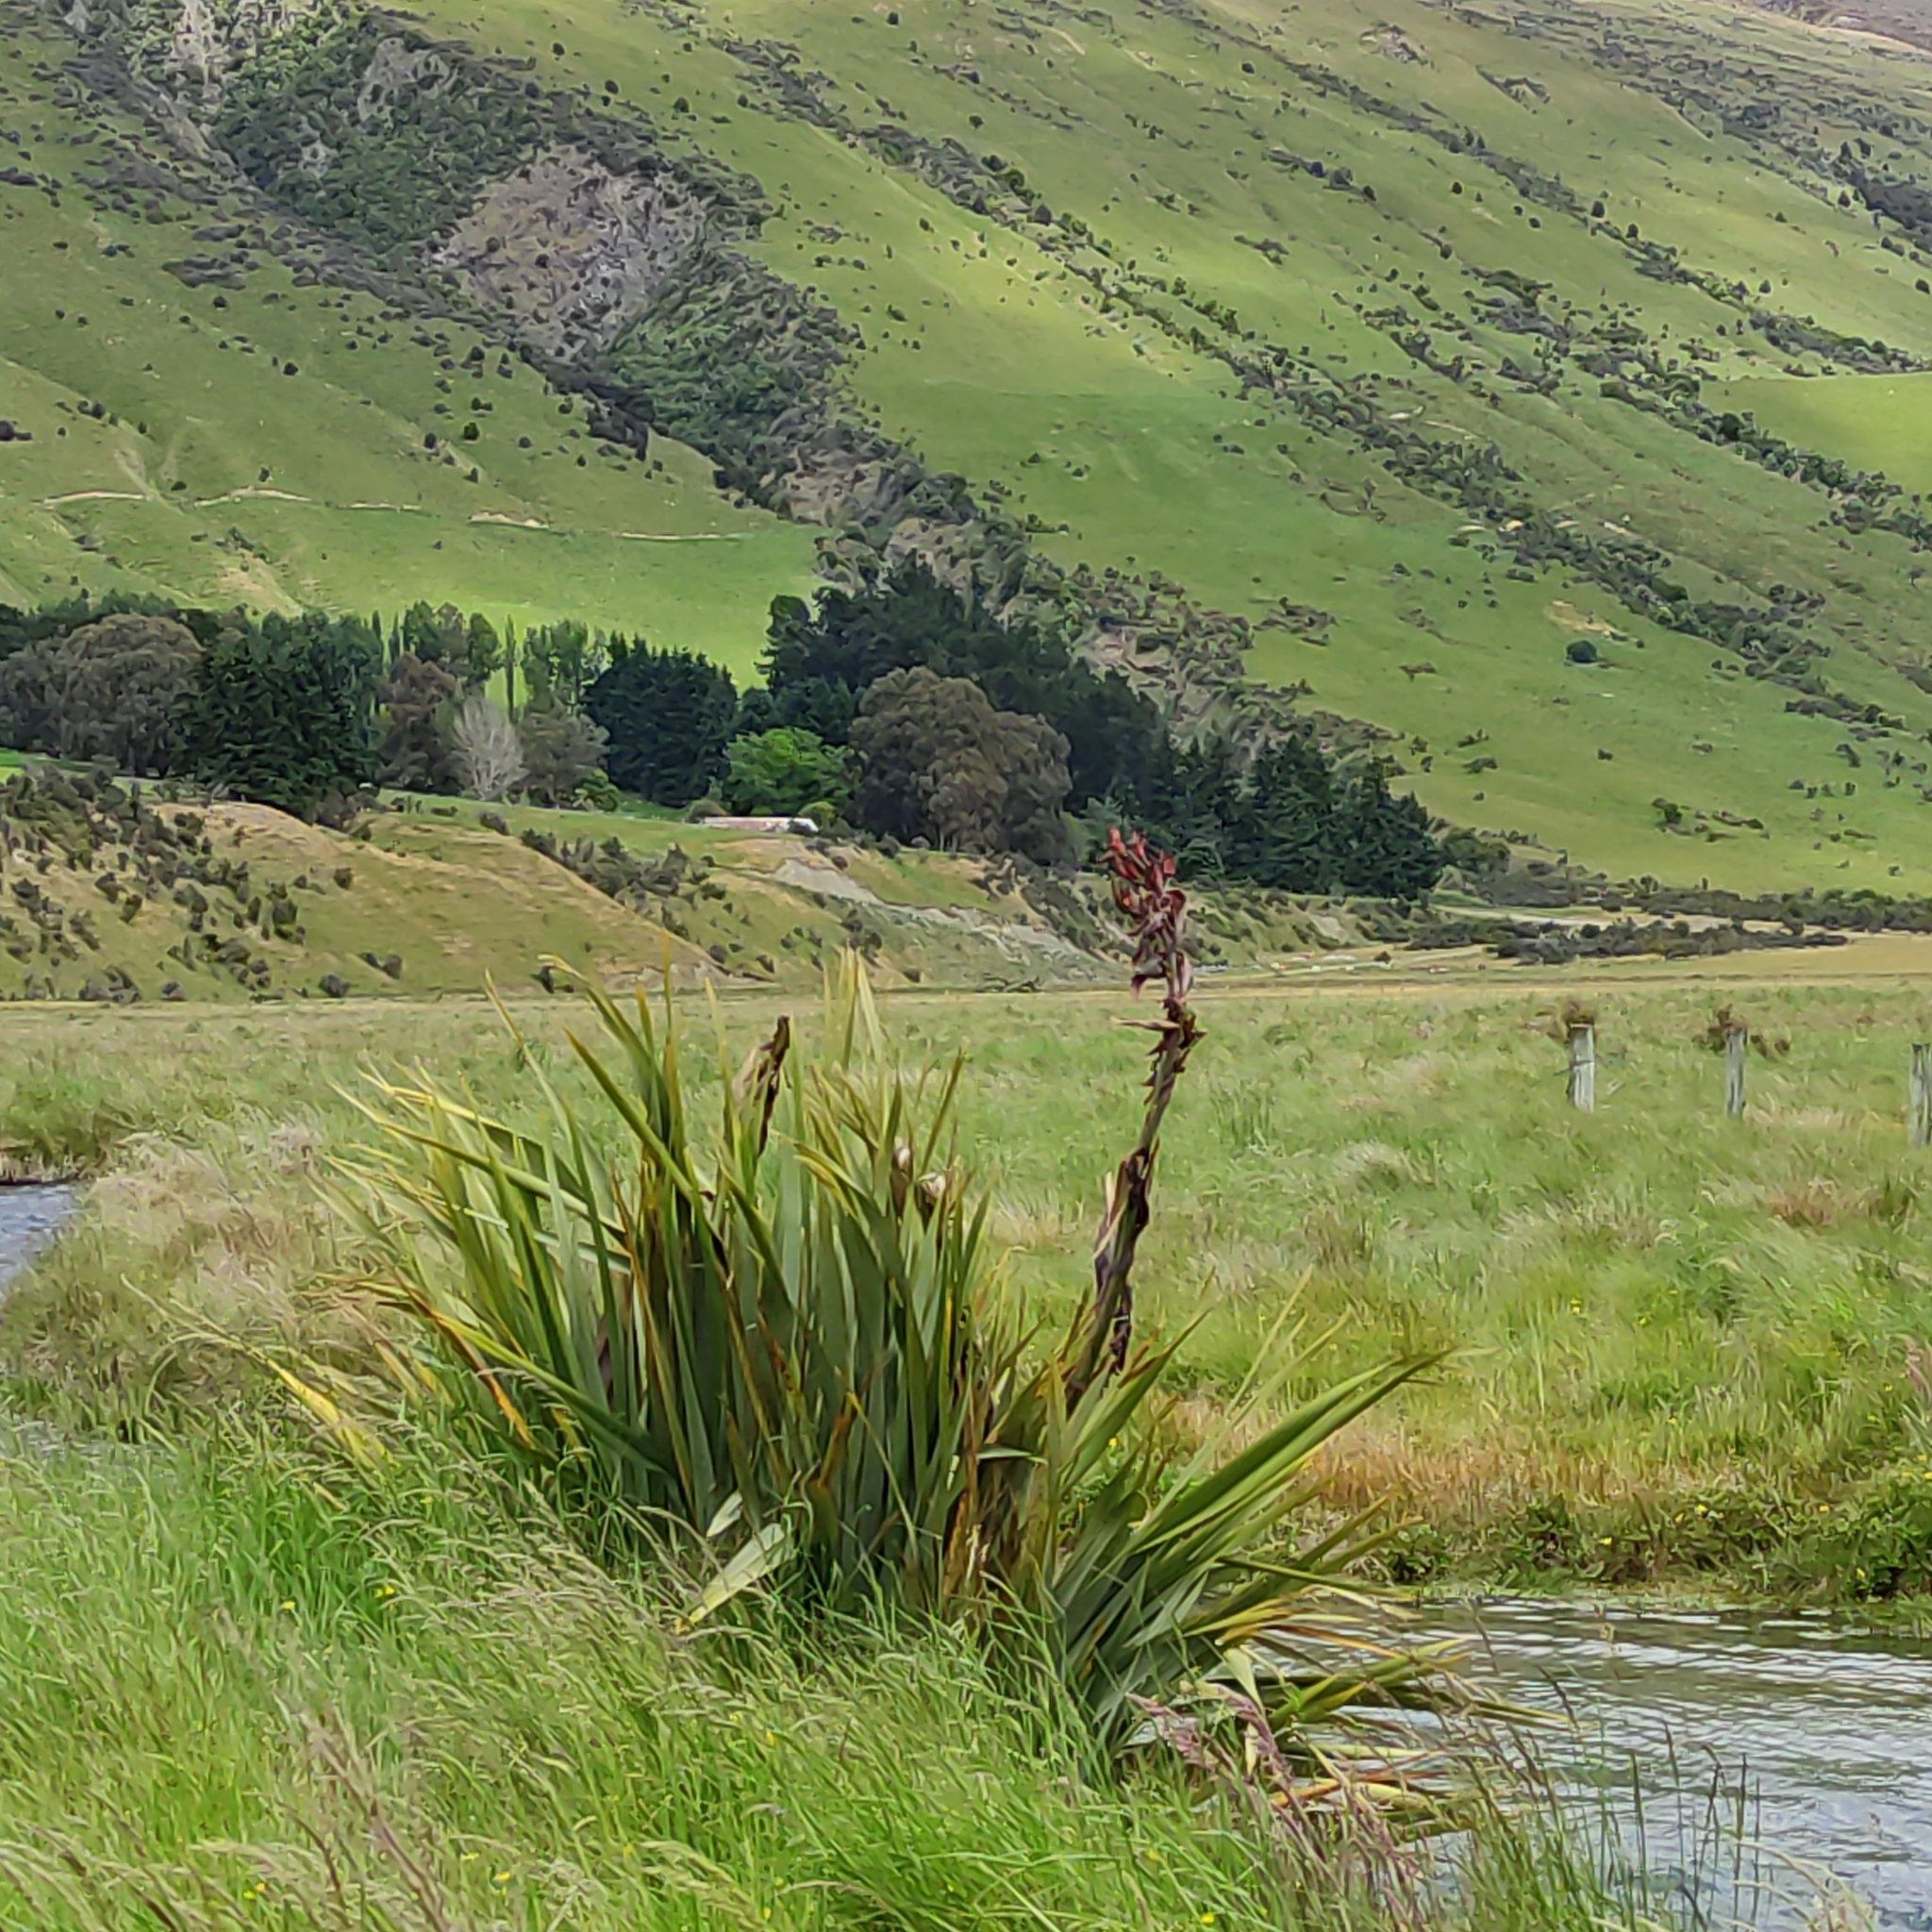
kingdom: Plantae
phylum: Tracheophyta
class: Liliopsida
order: Asparagales
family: Asphodelaceae
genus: Phormium
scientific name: Phormium tenax
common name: New zealand flax
